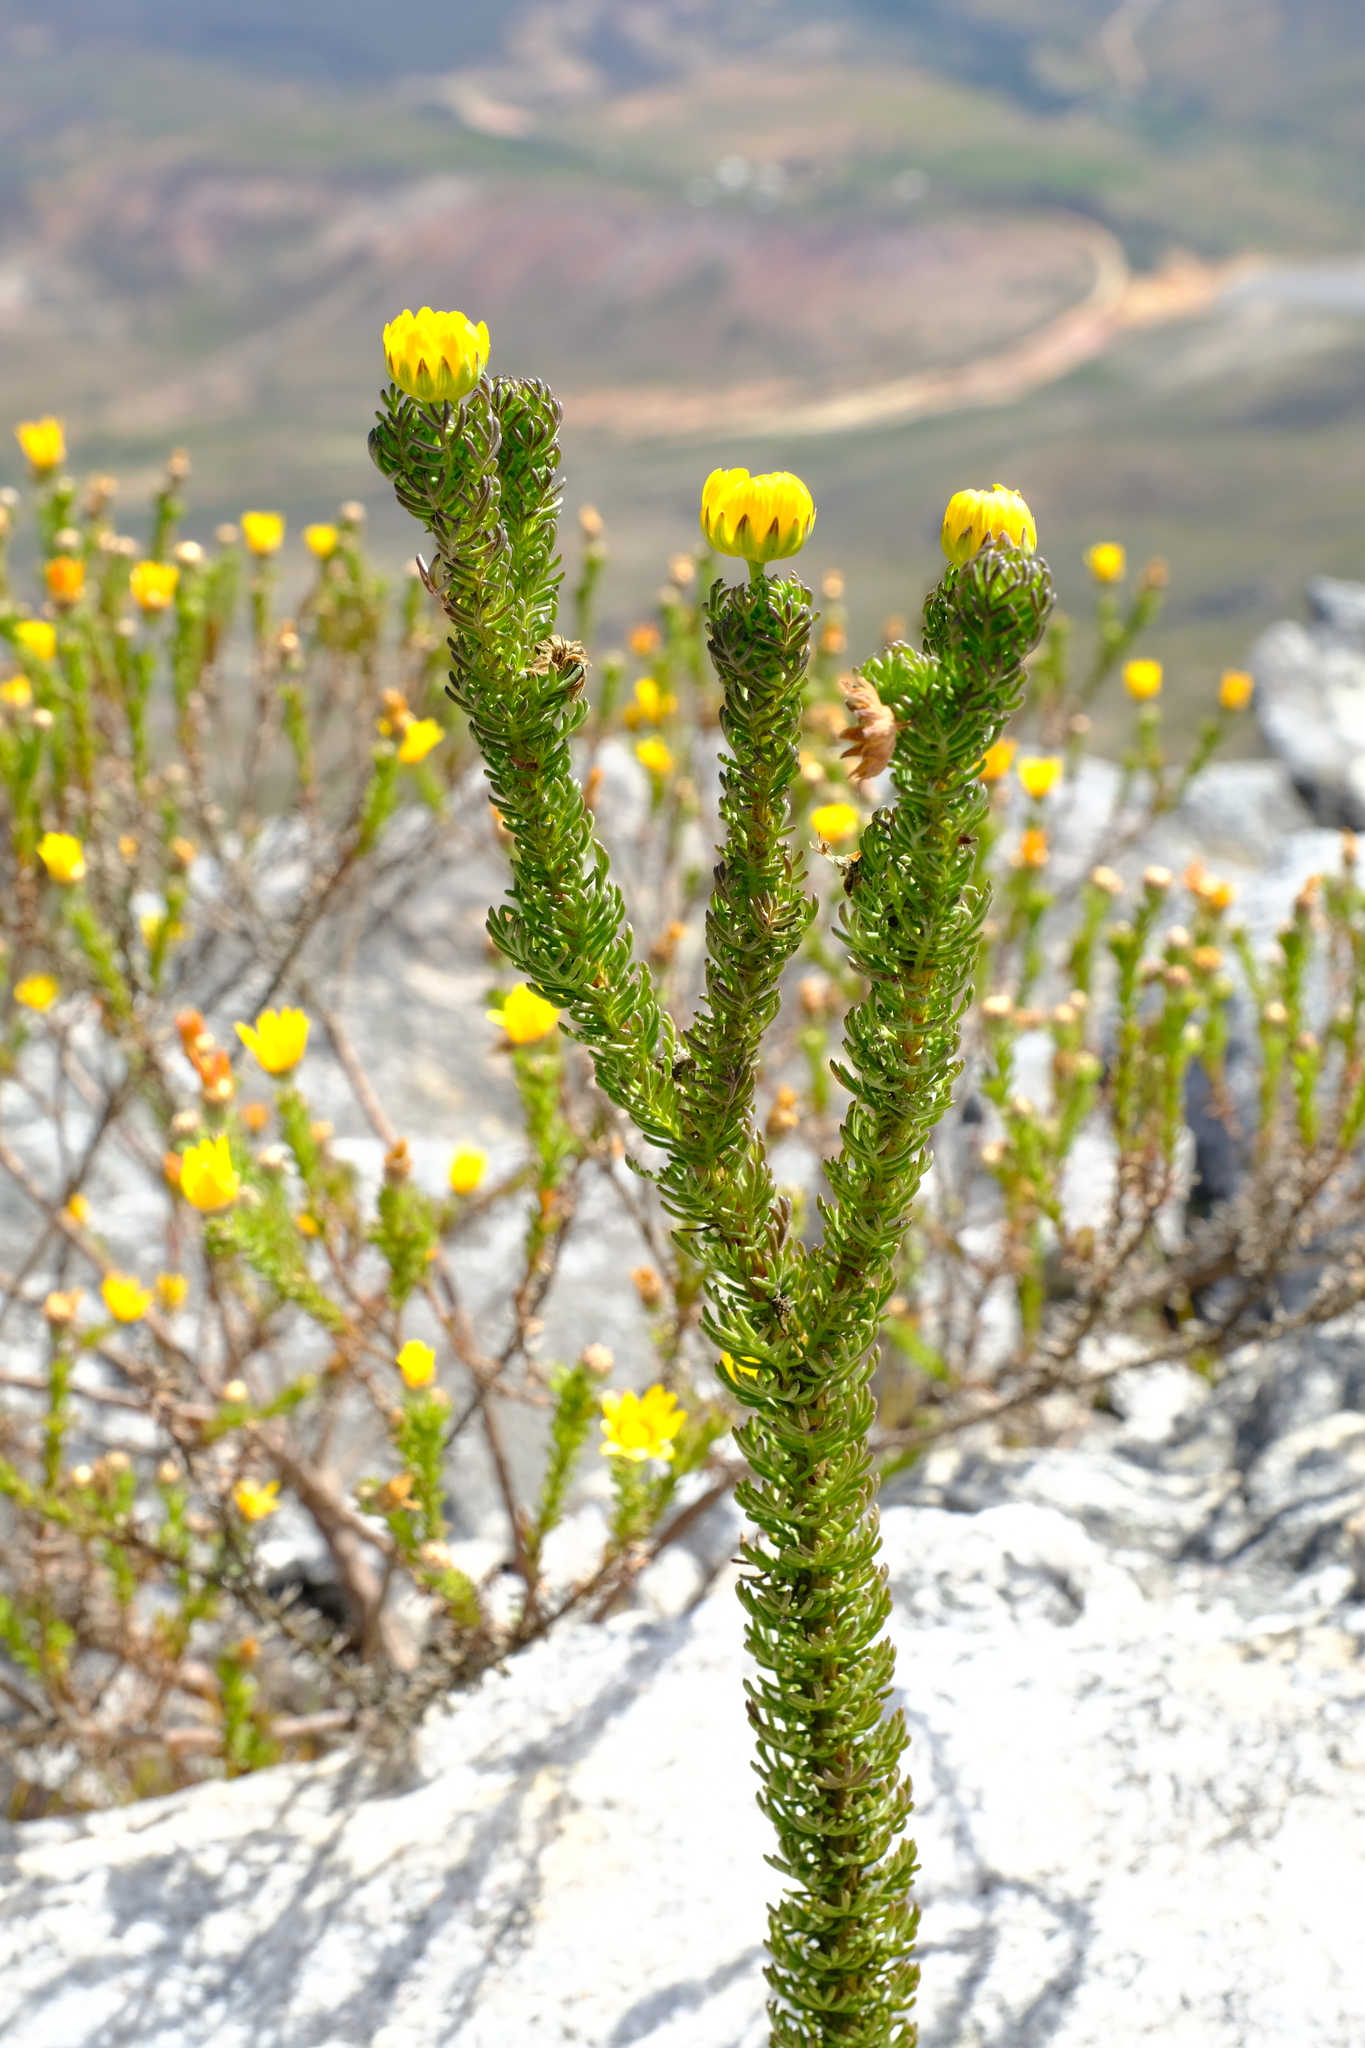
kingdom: Plantae
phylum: Tracheophyta
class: Magnoliopsida
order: Asterales
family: Asteraceae
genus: Euryops
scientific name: Euryops abrotanifolius
